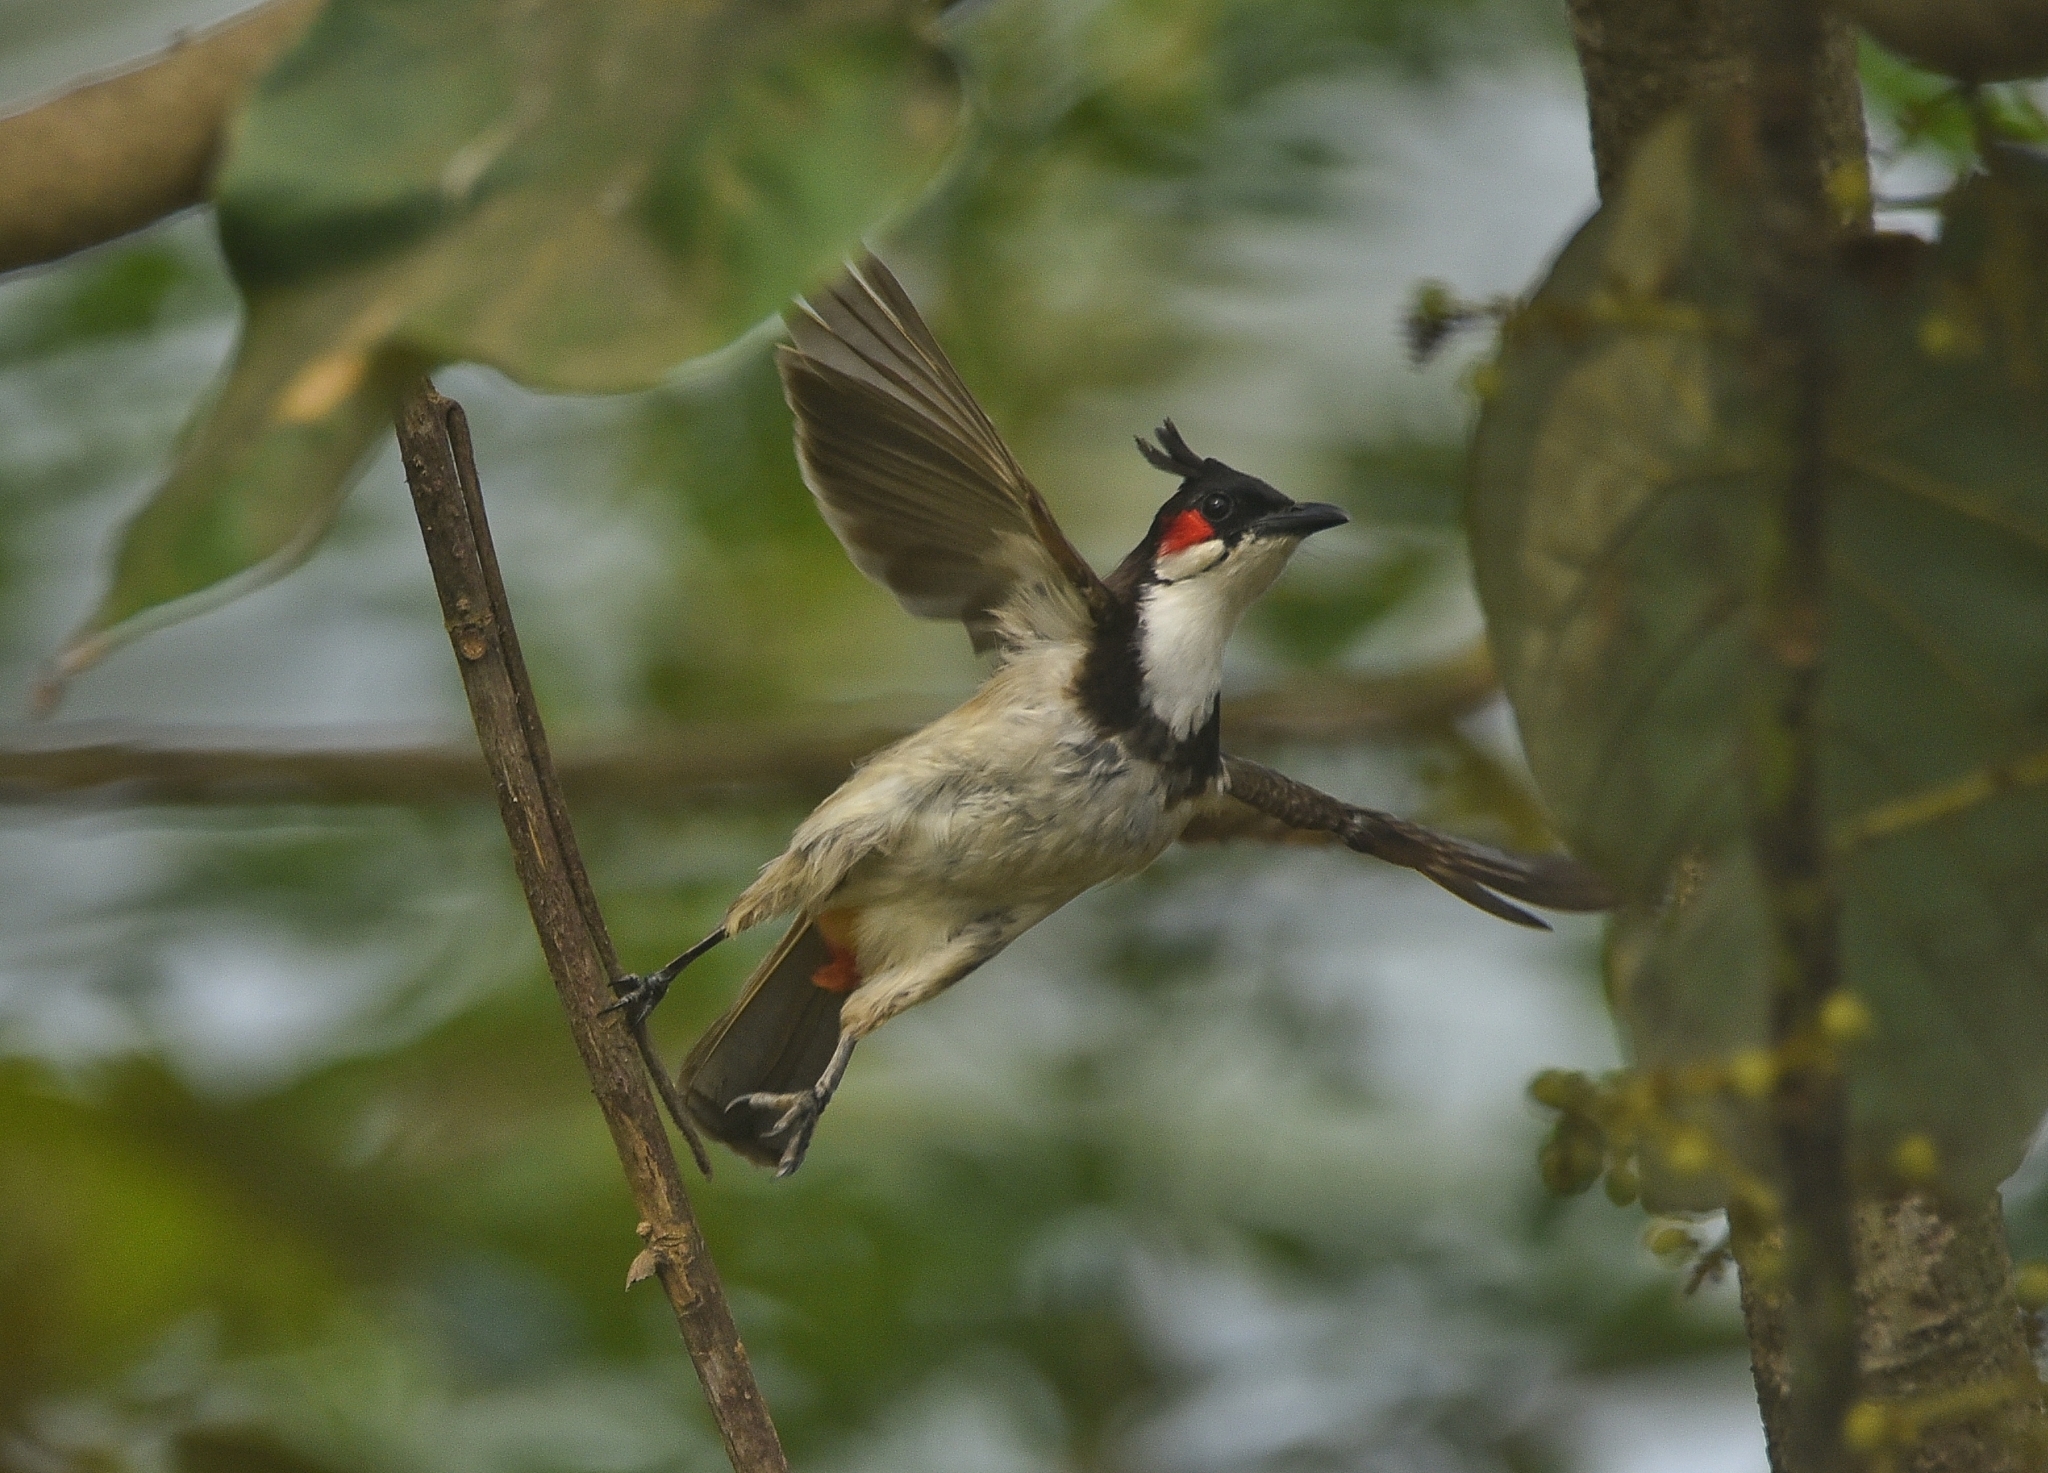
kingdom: Animalia
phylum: Chordata
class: Aves
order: Passeriformes
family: Pycnonotidae
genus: Pycnonotus
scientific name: Pycnonotus jocosus
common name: Red-whiskered bulbul
